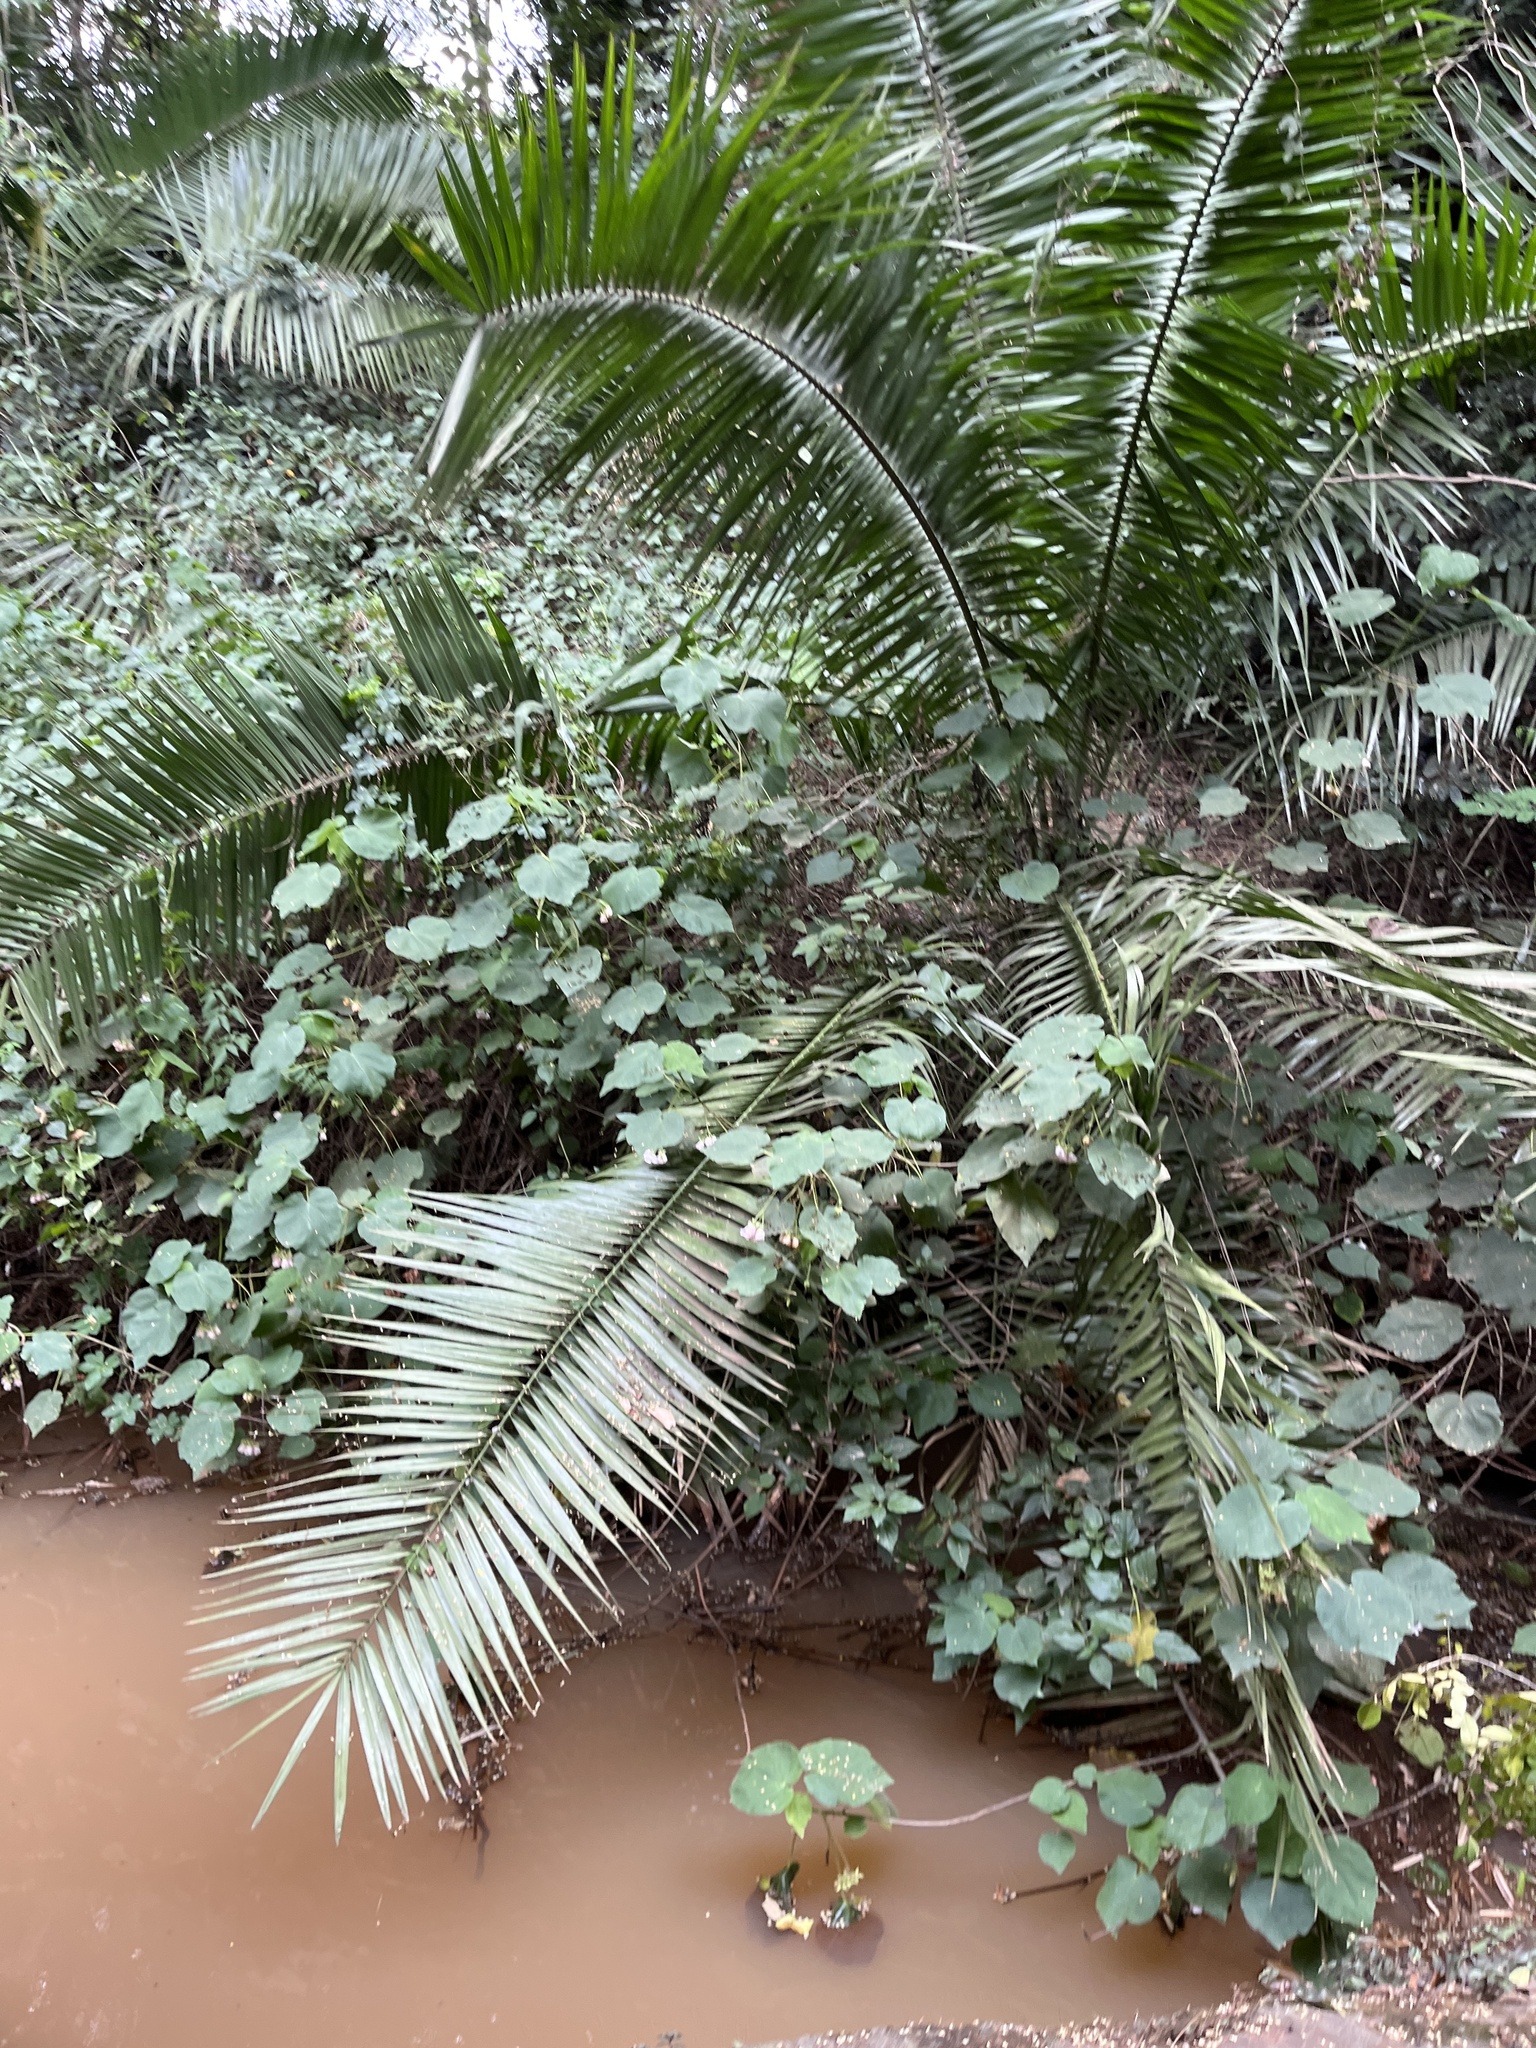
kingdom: Plantae
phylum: Tracheophyta
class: Liliopsida
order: Arecales
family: Arecaceae
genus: Phoenix
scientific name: Phoenix reclinata
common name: Senegal date palm
